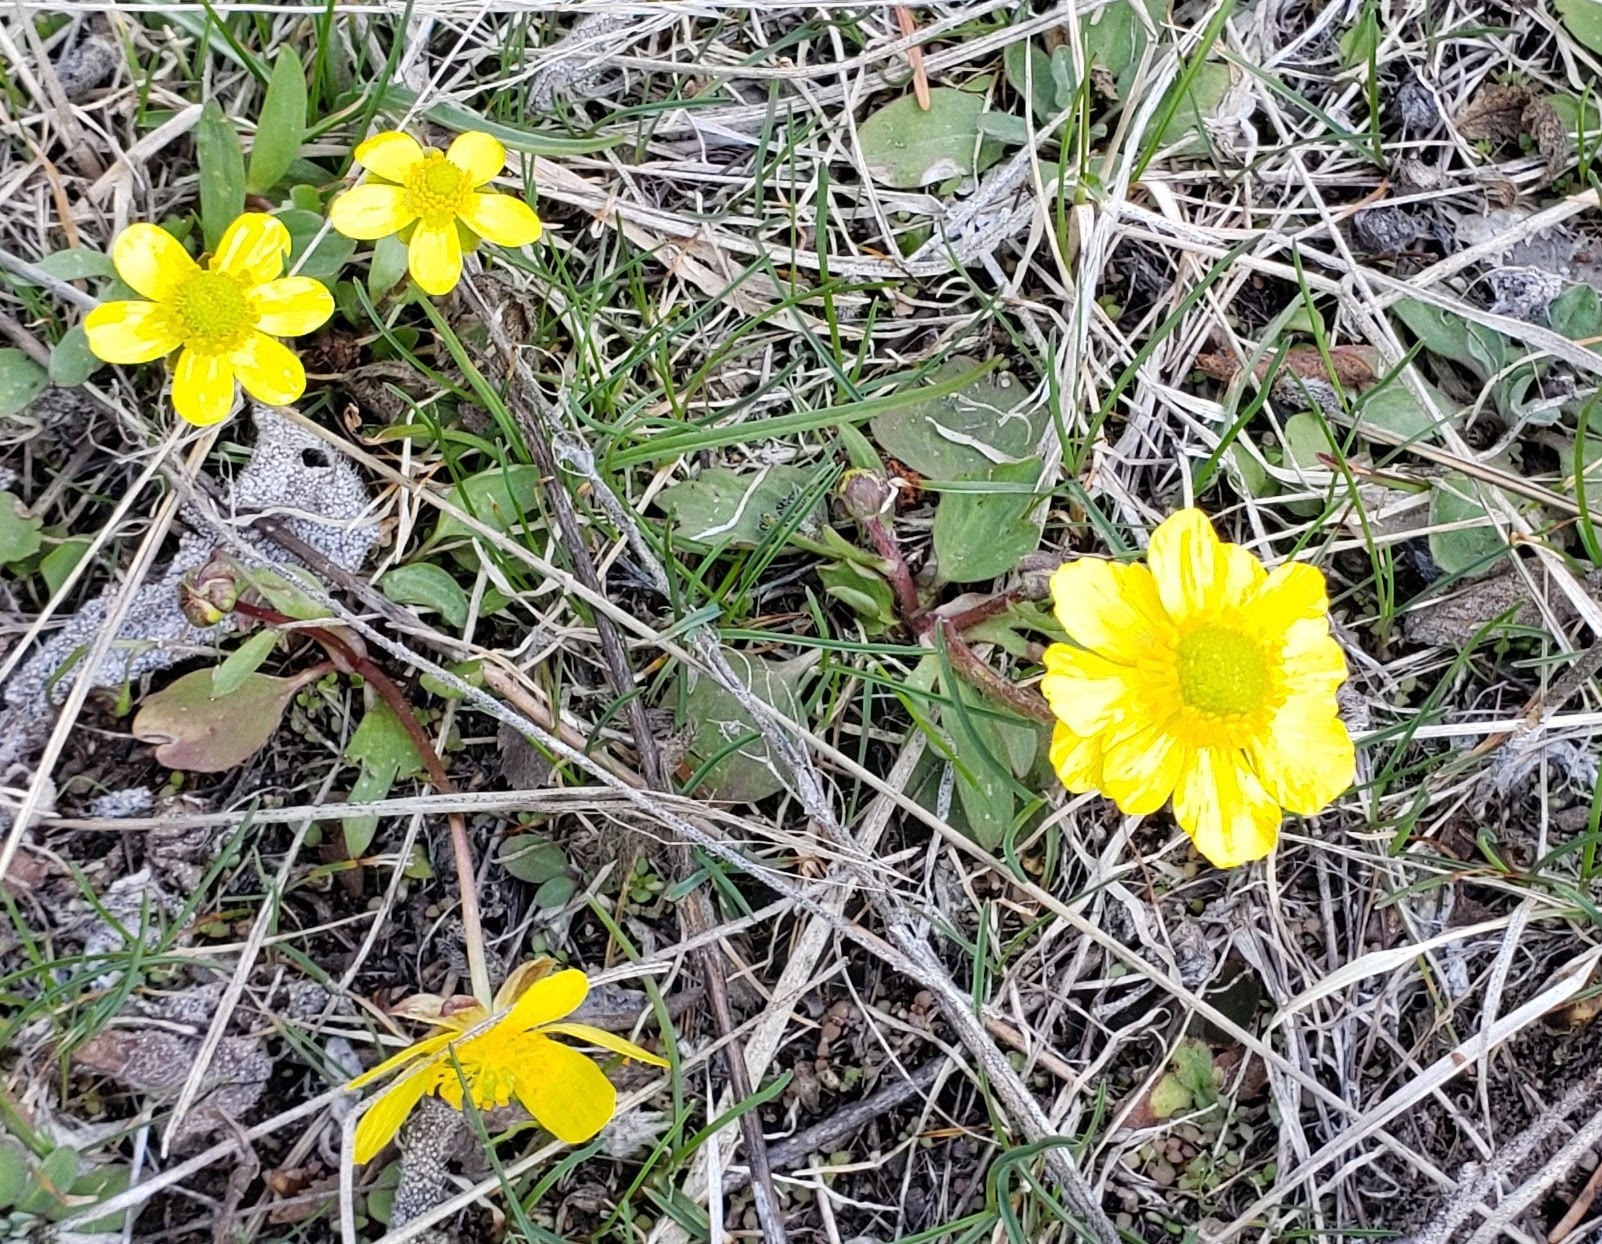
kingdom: Plantae
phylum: Tracheophyta
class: Magnoliopsida
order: Ranunculales
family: Ranunculaceae
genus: Ranunculus
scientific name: Ranunculus glaberrimus
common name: Sagebrush buttercup
